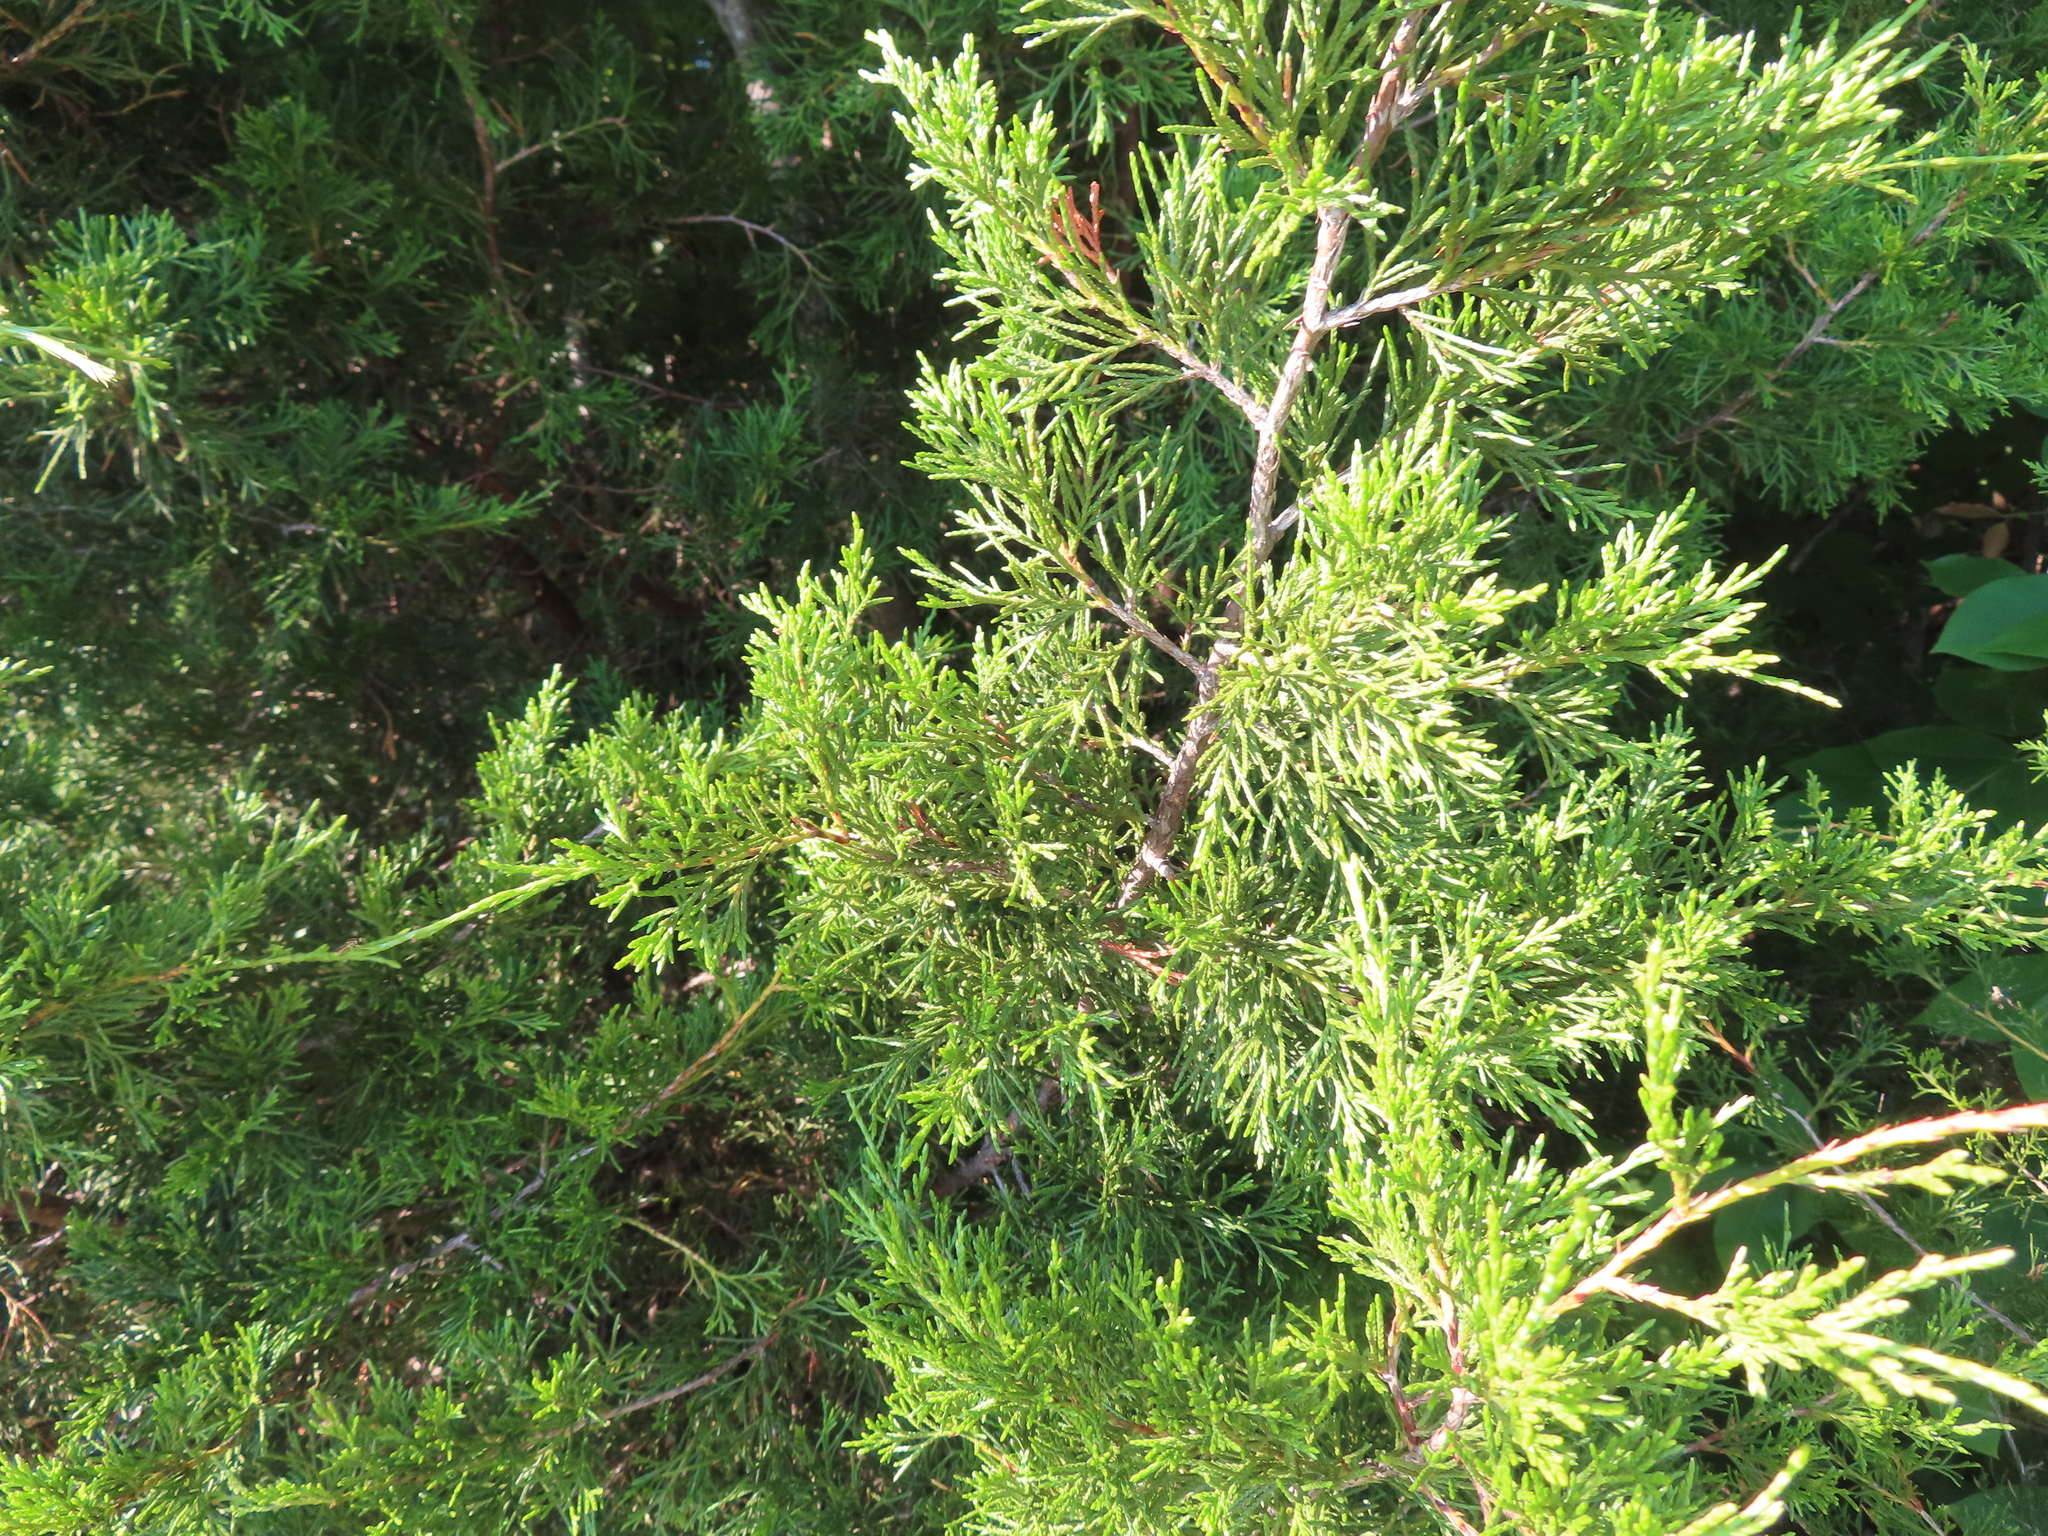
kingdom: Plantae
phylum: Tracheophyta
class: Pinopsida
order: Pinales
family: Cupressaceae
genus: Juniperus
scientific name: Juniperus virginiana
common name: Red juniper
